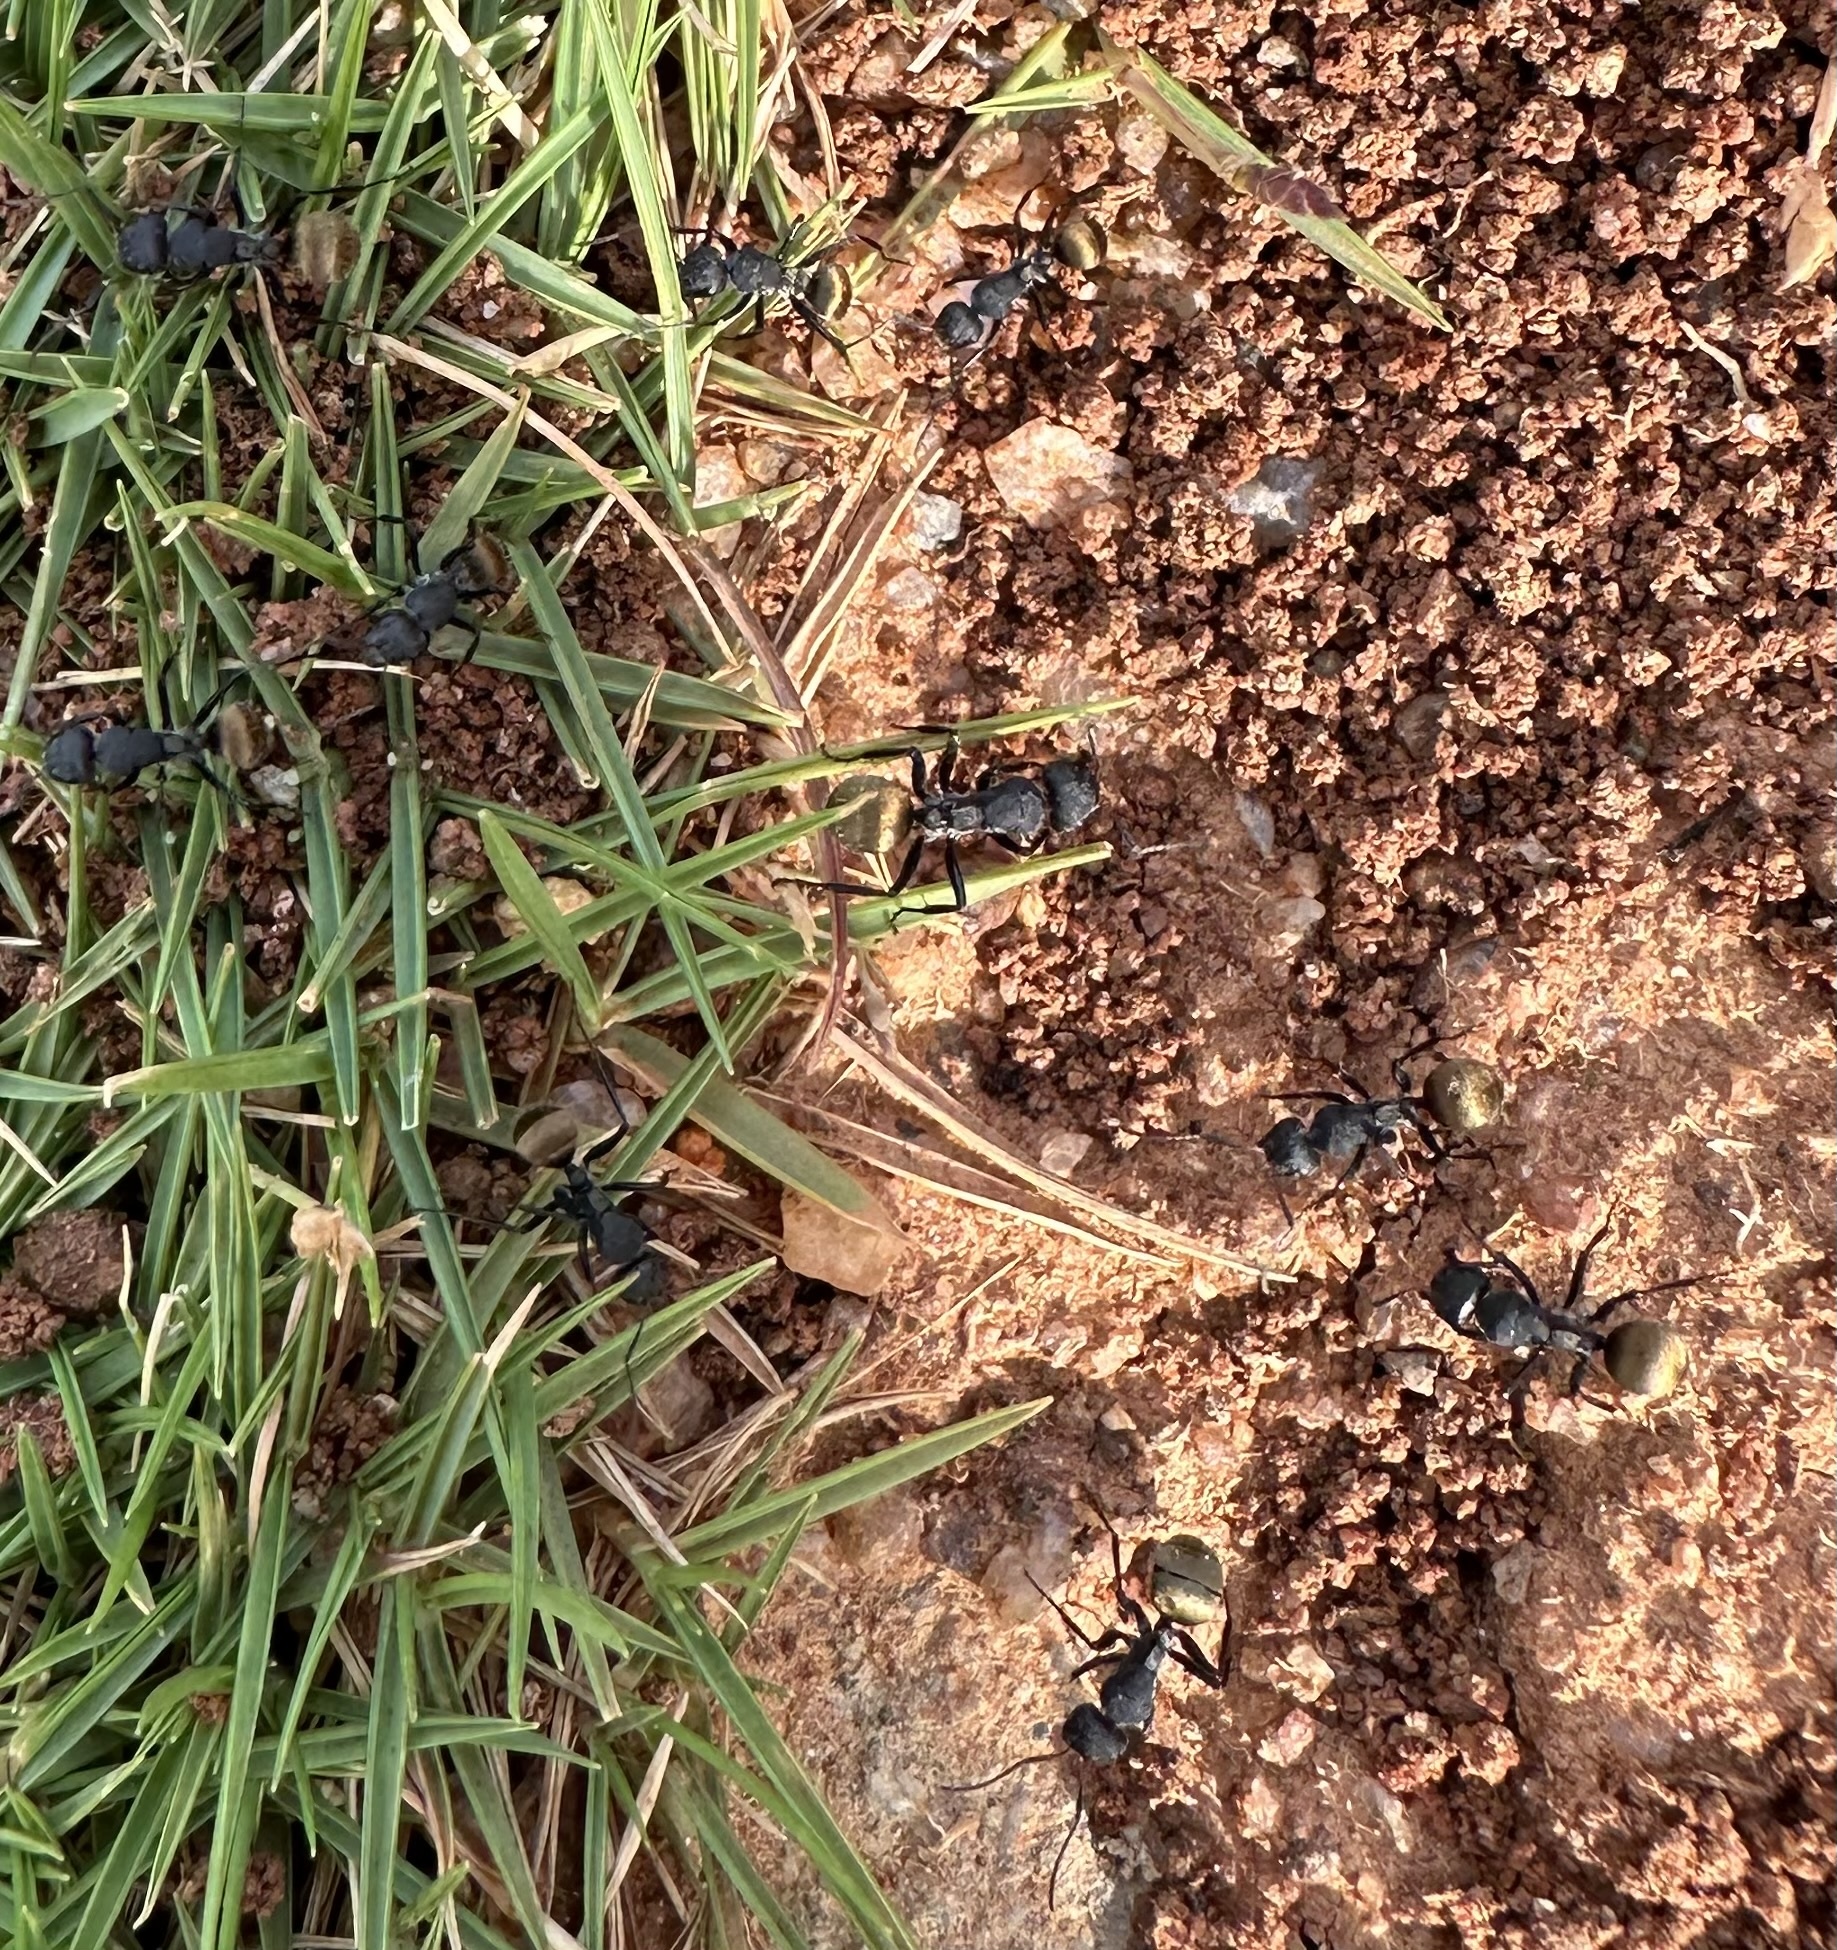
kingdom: Animalia
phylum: Arthropoda
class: Insecta
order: Hymenoptera
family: Formicidae
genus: Camponotus
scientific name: Camponotus sericeus
